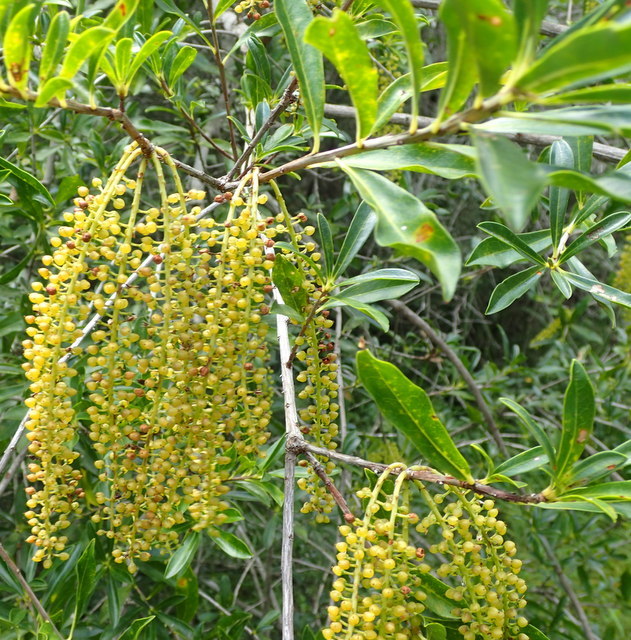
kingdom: Plantae
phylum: Tracheophyta
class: Magnoliopsida
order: Ericales
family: Cyrillaceae
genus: Cyrilla
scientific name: Cyrilla racemiflora
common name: Black titi
